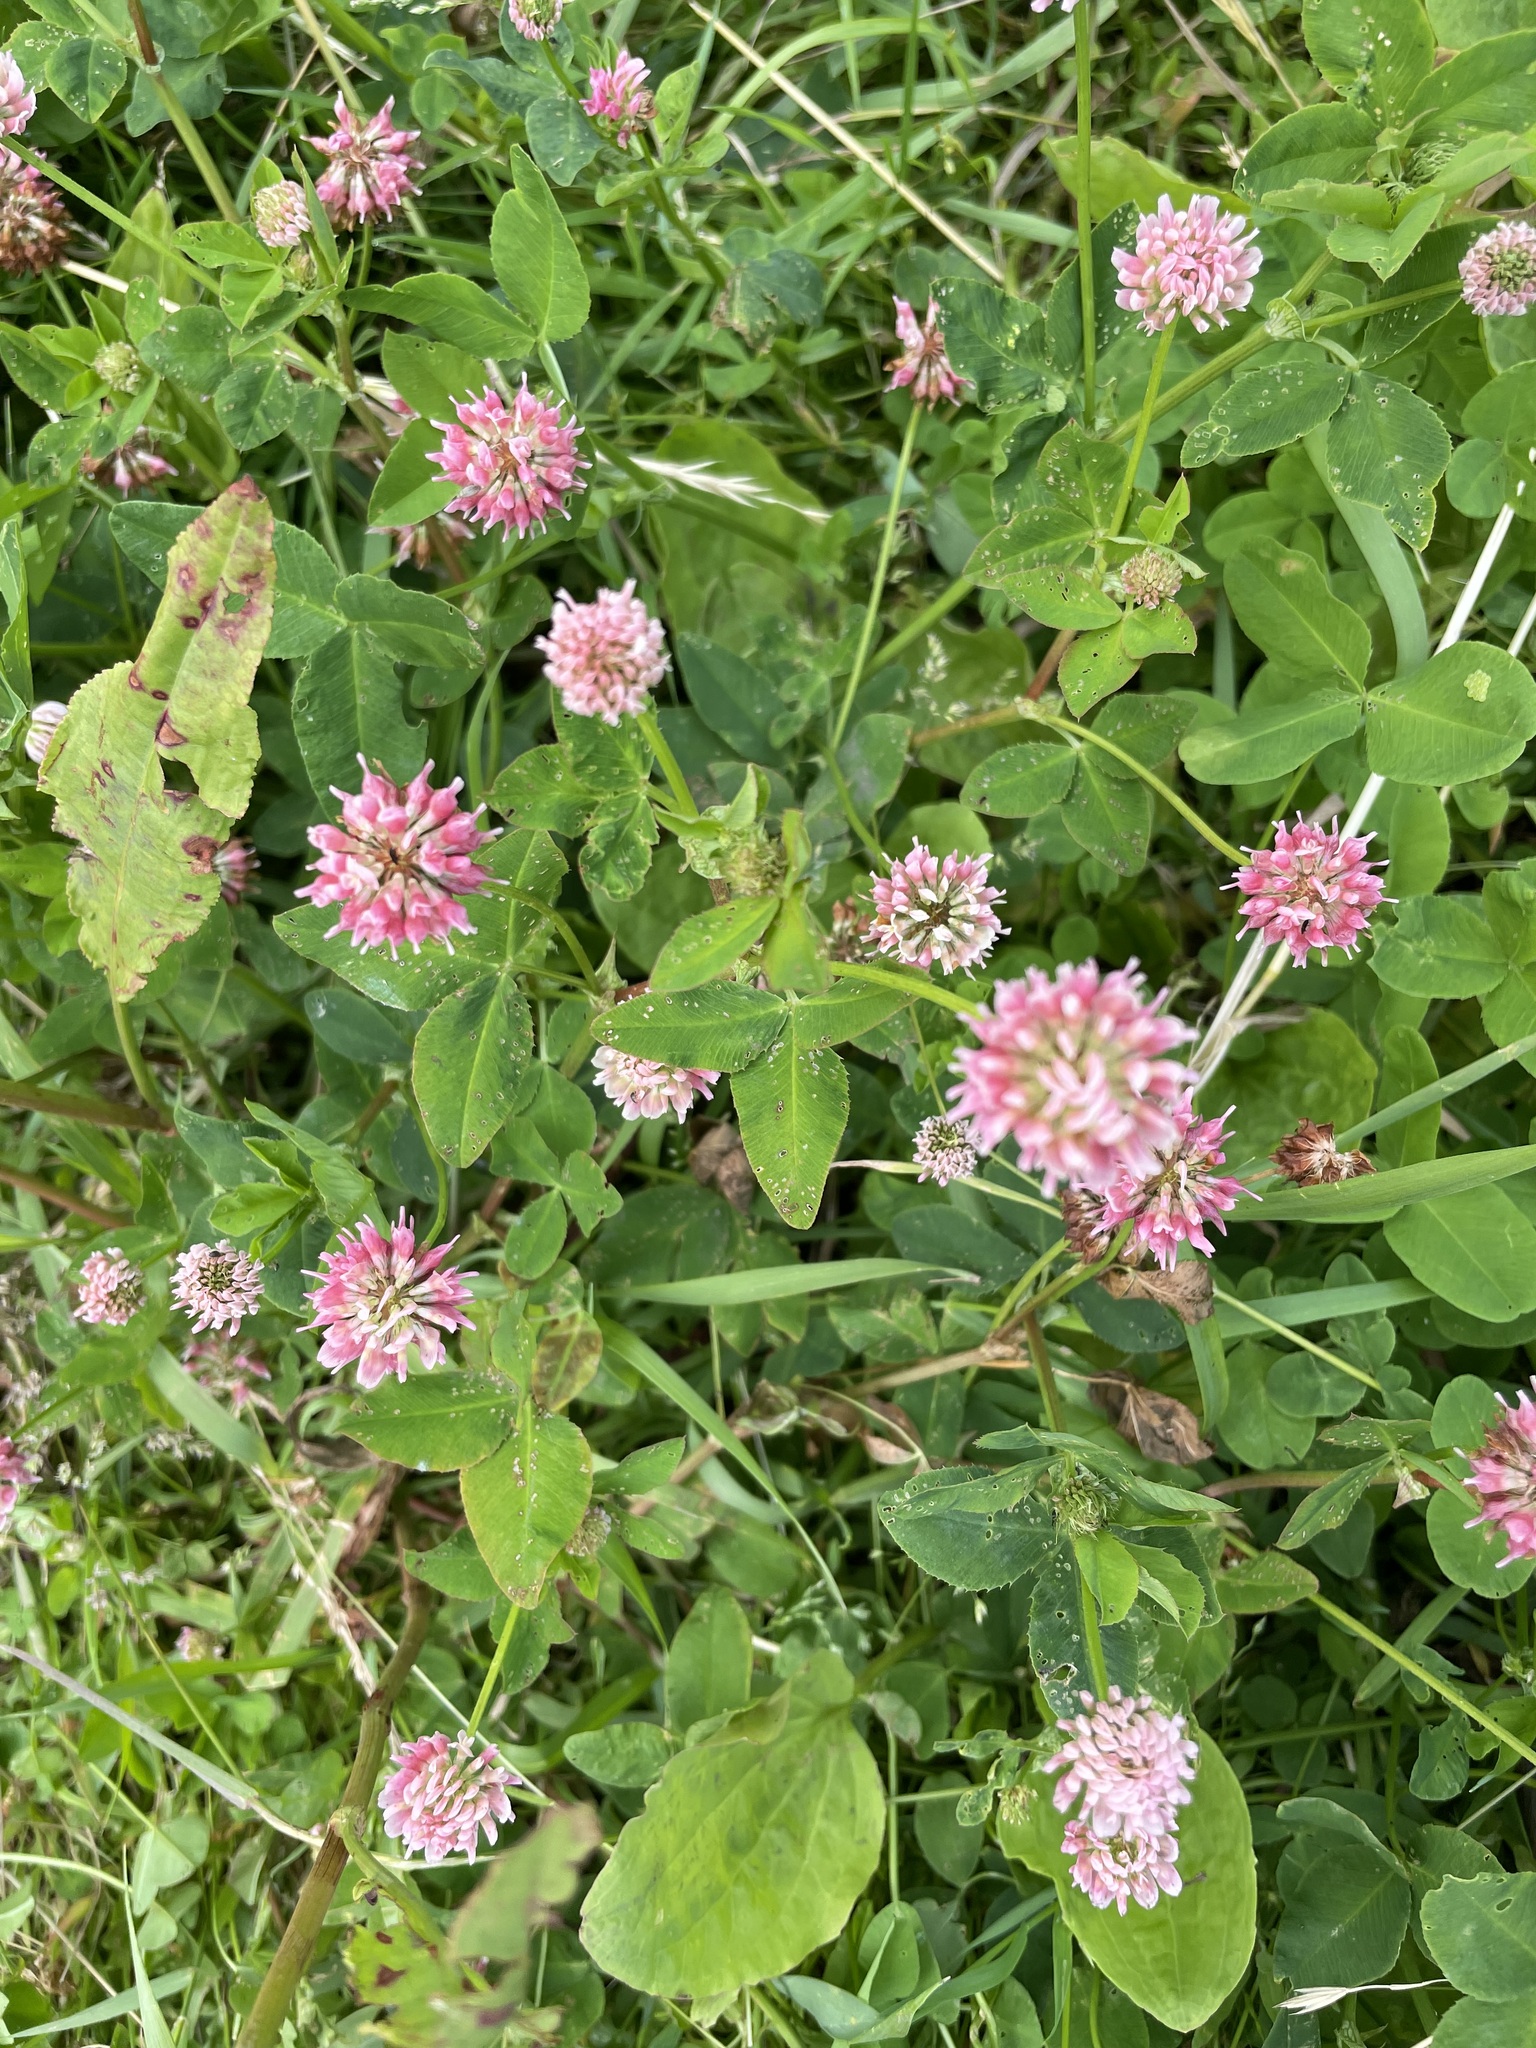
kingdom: Plantae
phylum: Tracheophyta
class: Magnoliopsida
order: Fabales
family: Fabaceae
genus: Trifolium
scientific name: Trifolium hybridum
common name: Alsike clover
